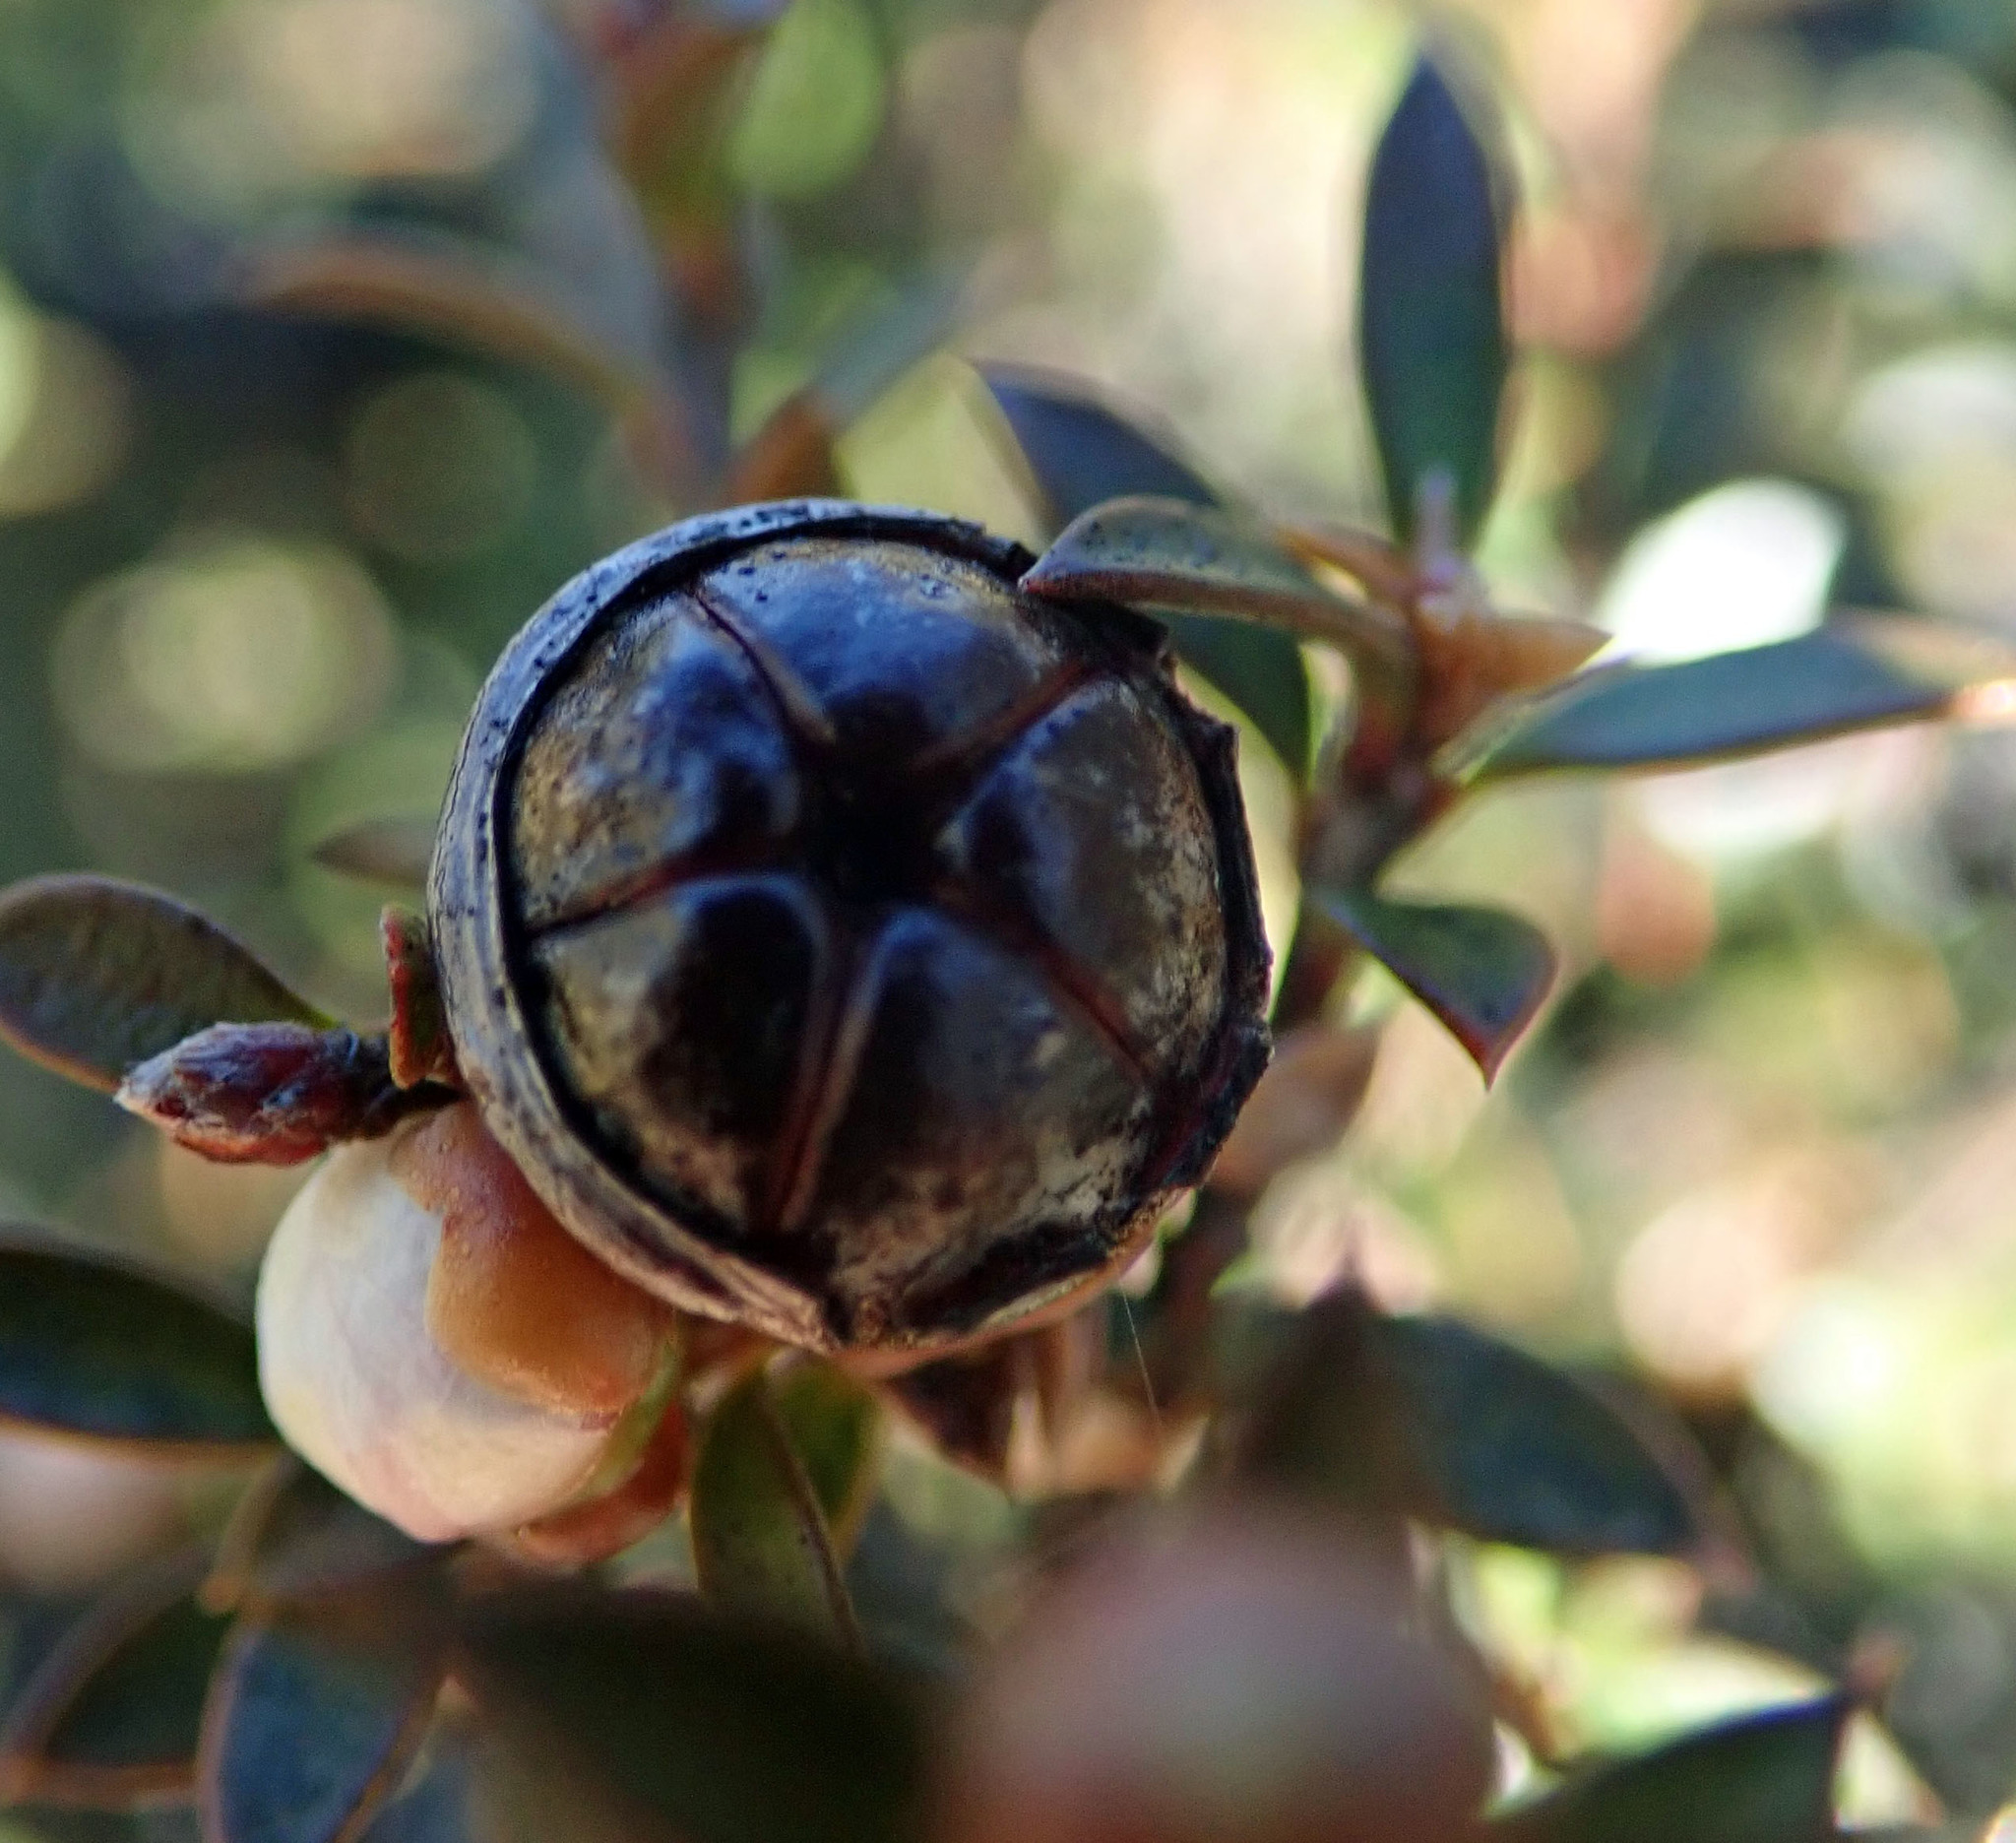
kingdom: Plantae
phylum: Tracheophyta
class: Magnoliopsida
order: Myrtales
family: Myrtaceae
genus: Leptospermum
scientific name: Leptospermum scoparium
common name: Broom tea-tree
